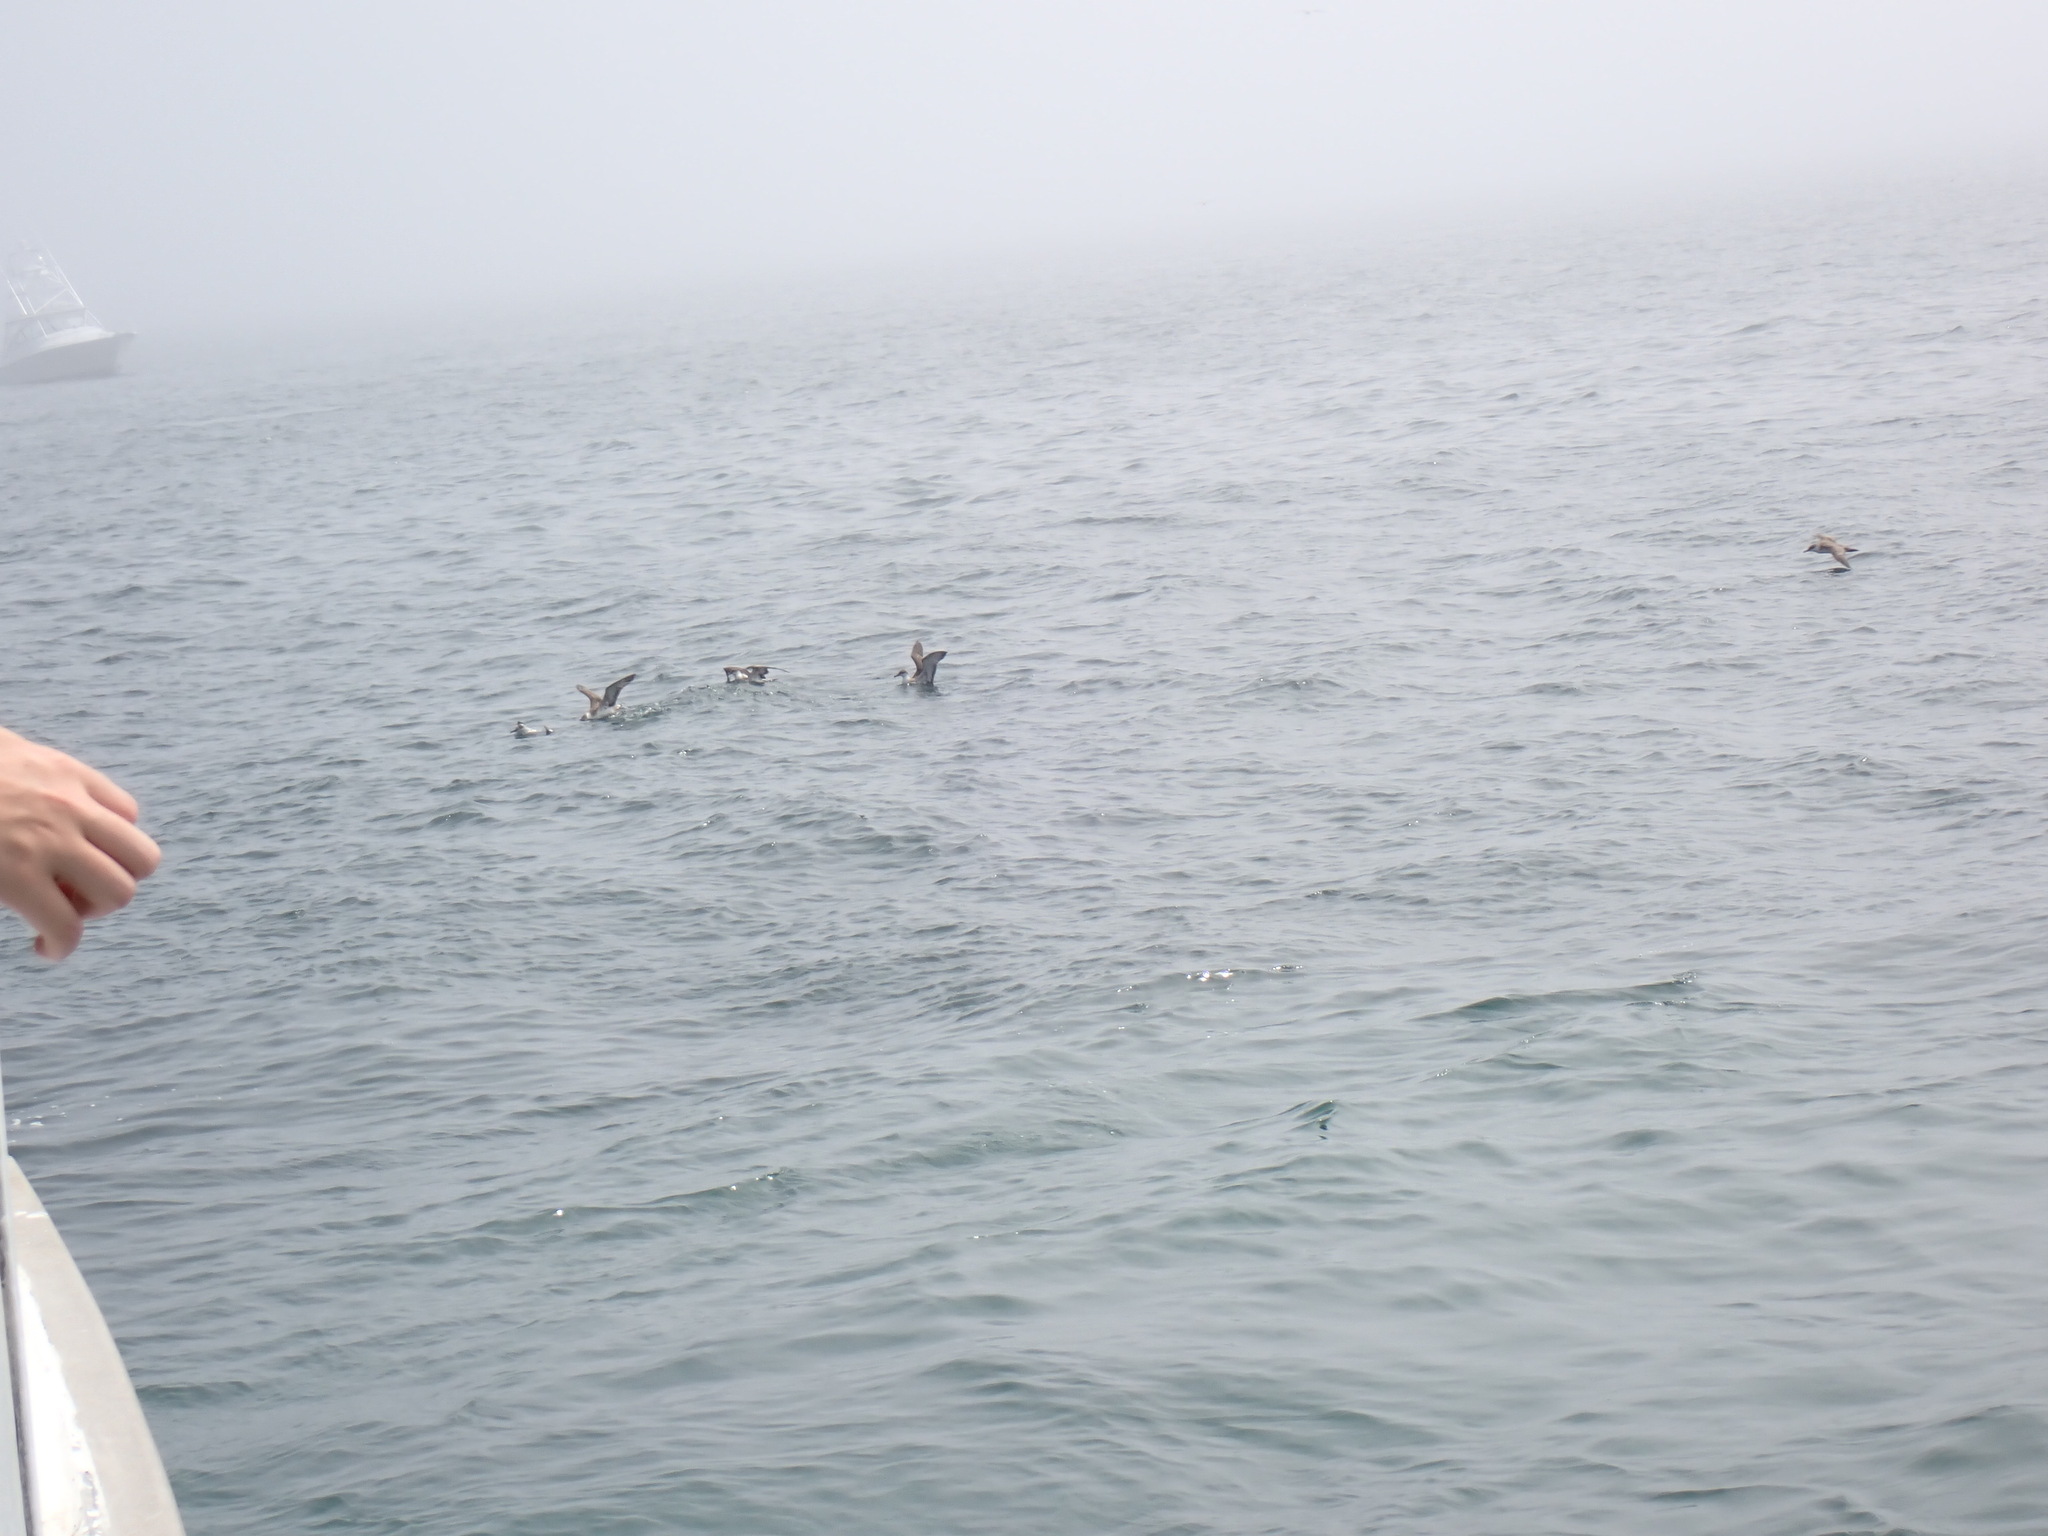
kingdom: Animalia
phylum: Chordata
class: Aves
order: Procellariiformes
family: Procellariidae
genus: Puffinus
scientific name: Puffinus gravis
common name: Great shearwater
